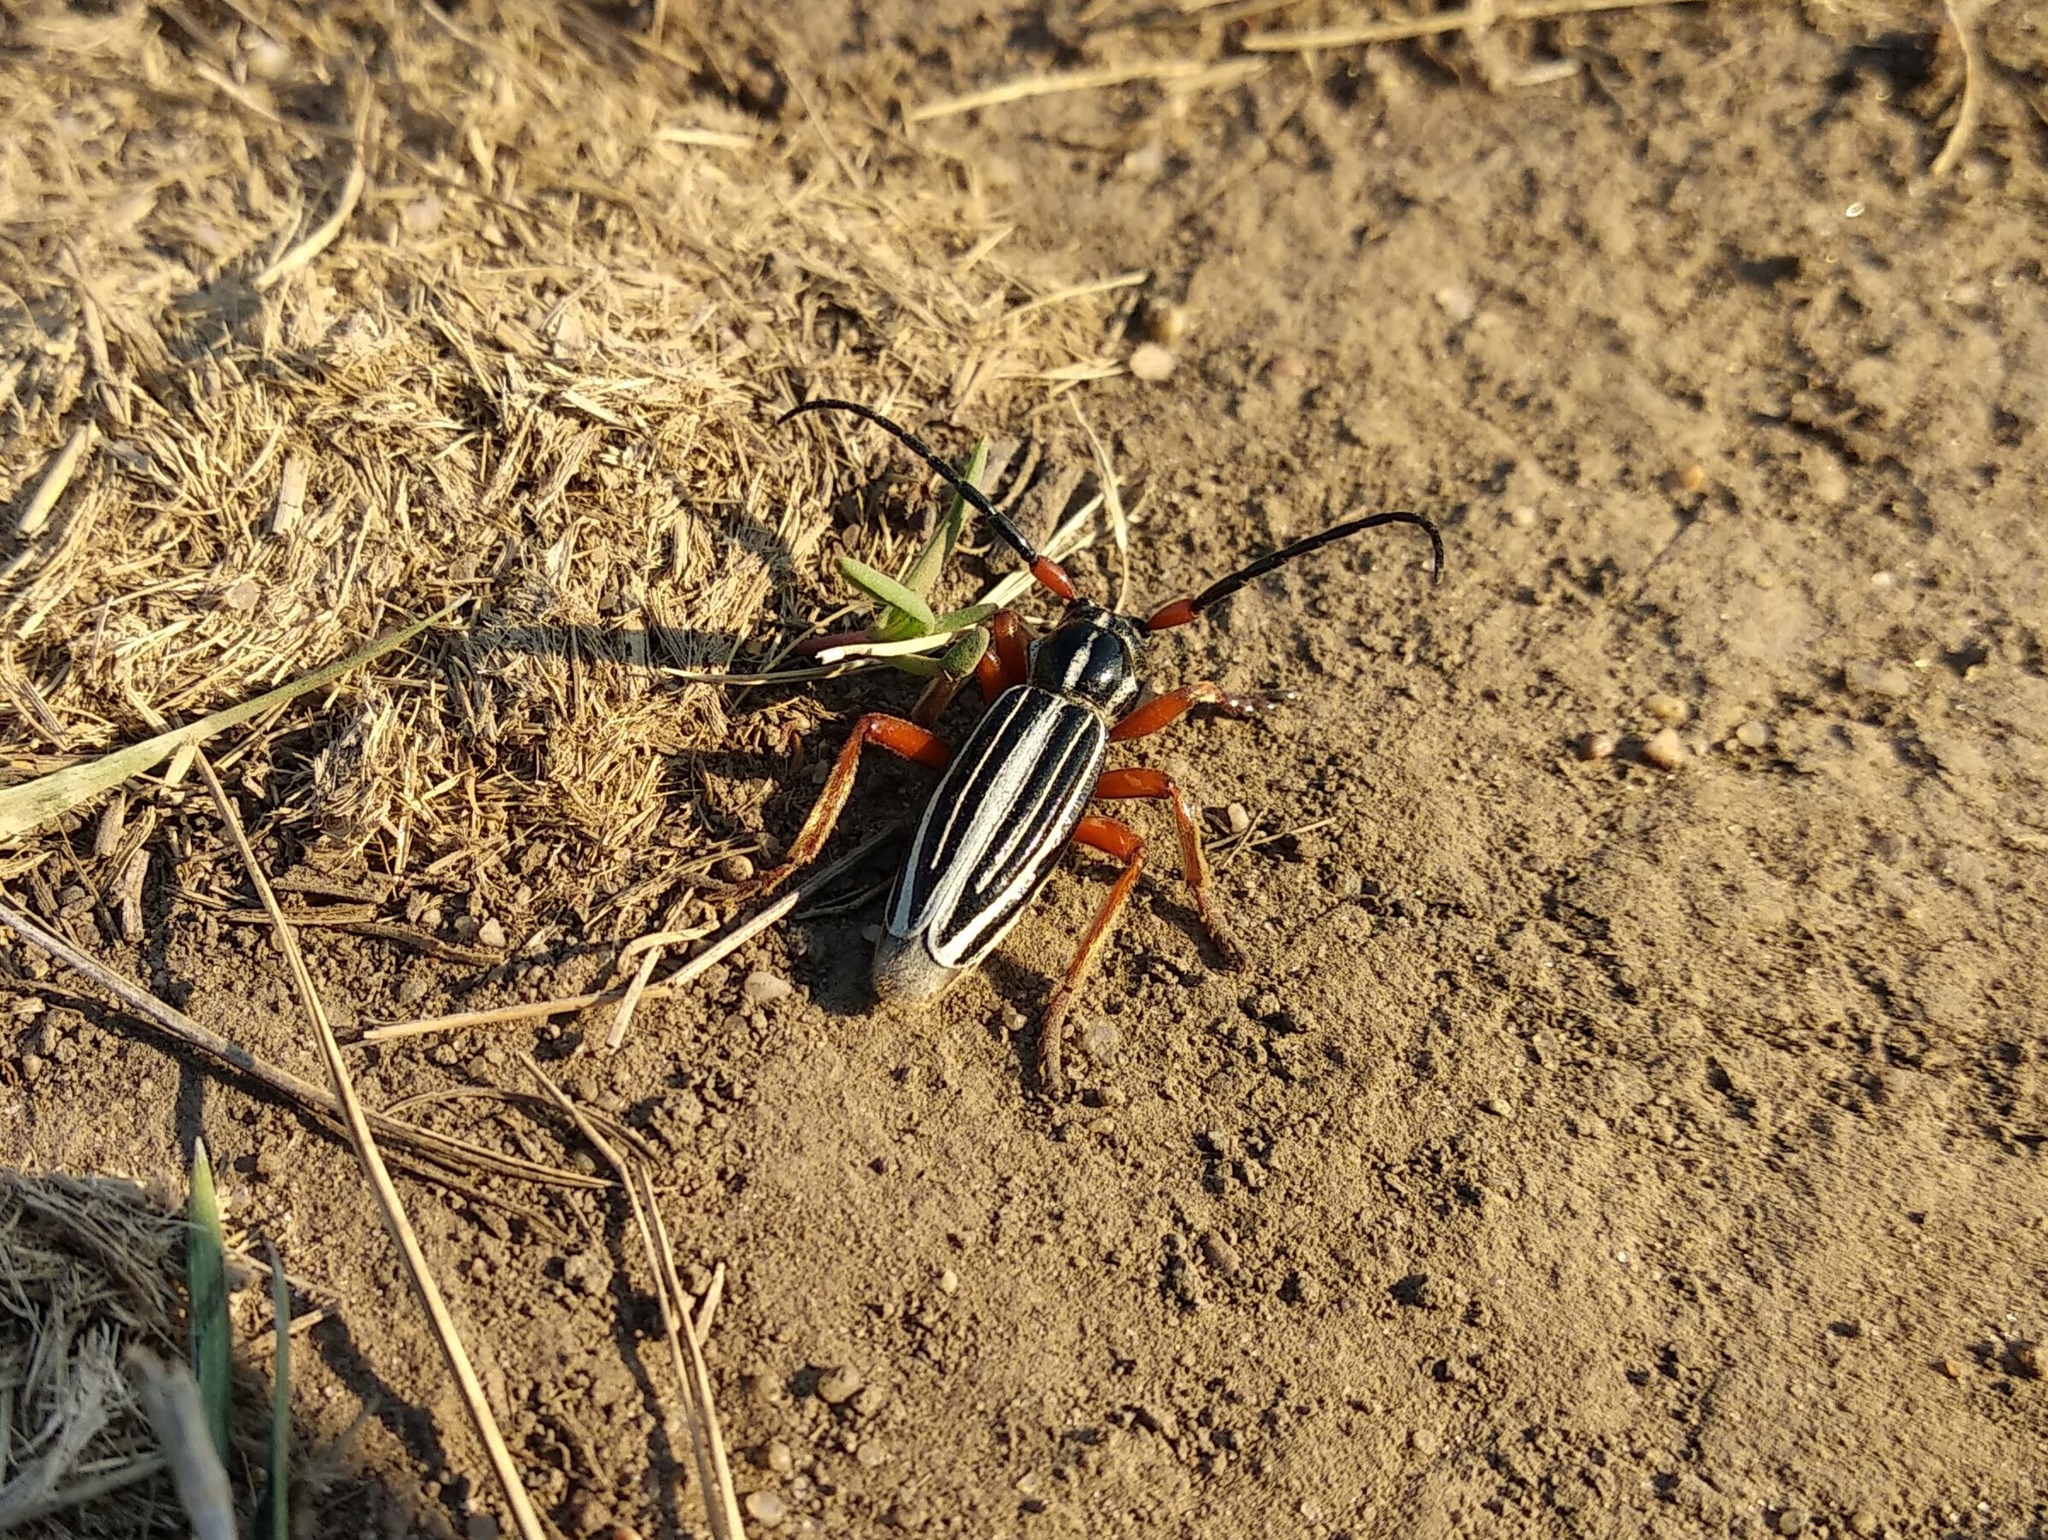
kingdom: Animalia
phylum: Arthropoda
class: Insecta
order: Coleoptera
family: Cerambycidae
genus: Politodorcadion
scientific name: Politodorcadion politum
